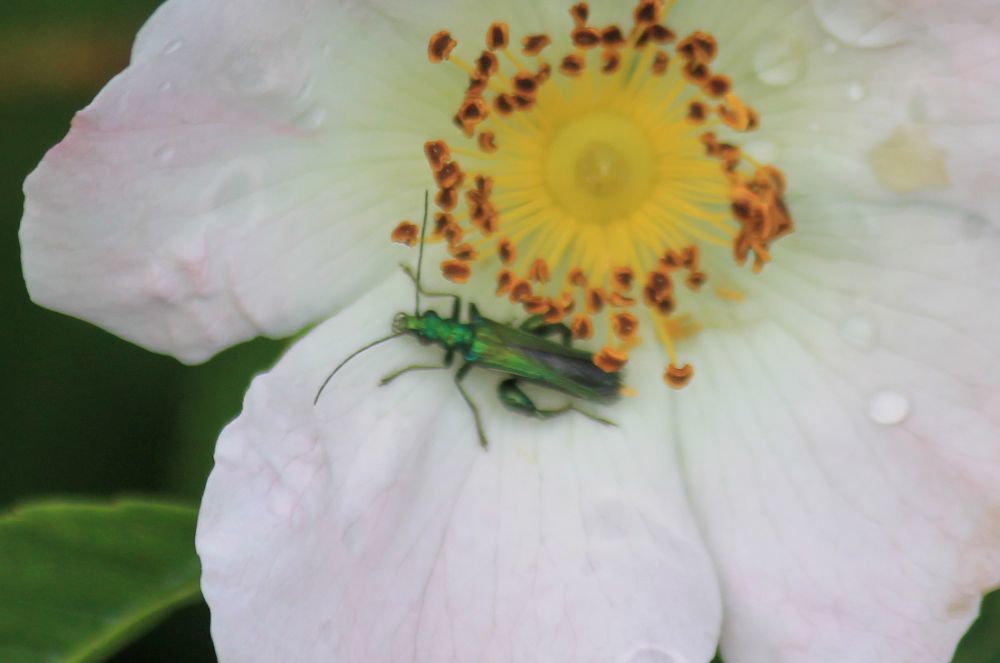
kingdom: Animalia
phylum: Arthropoda
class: Insecta
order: Coleoptera
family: Oedemeridae
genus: Oedemera
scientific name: Oedemera nobilis
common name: Swollen-thighed beetle
